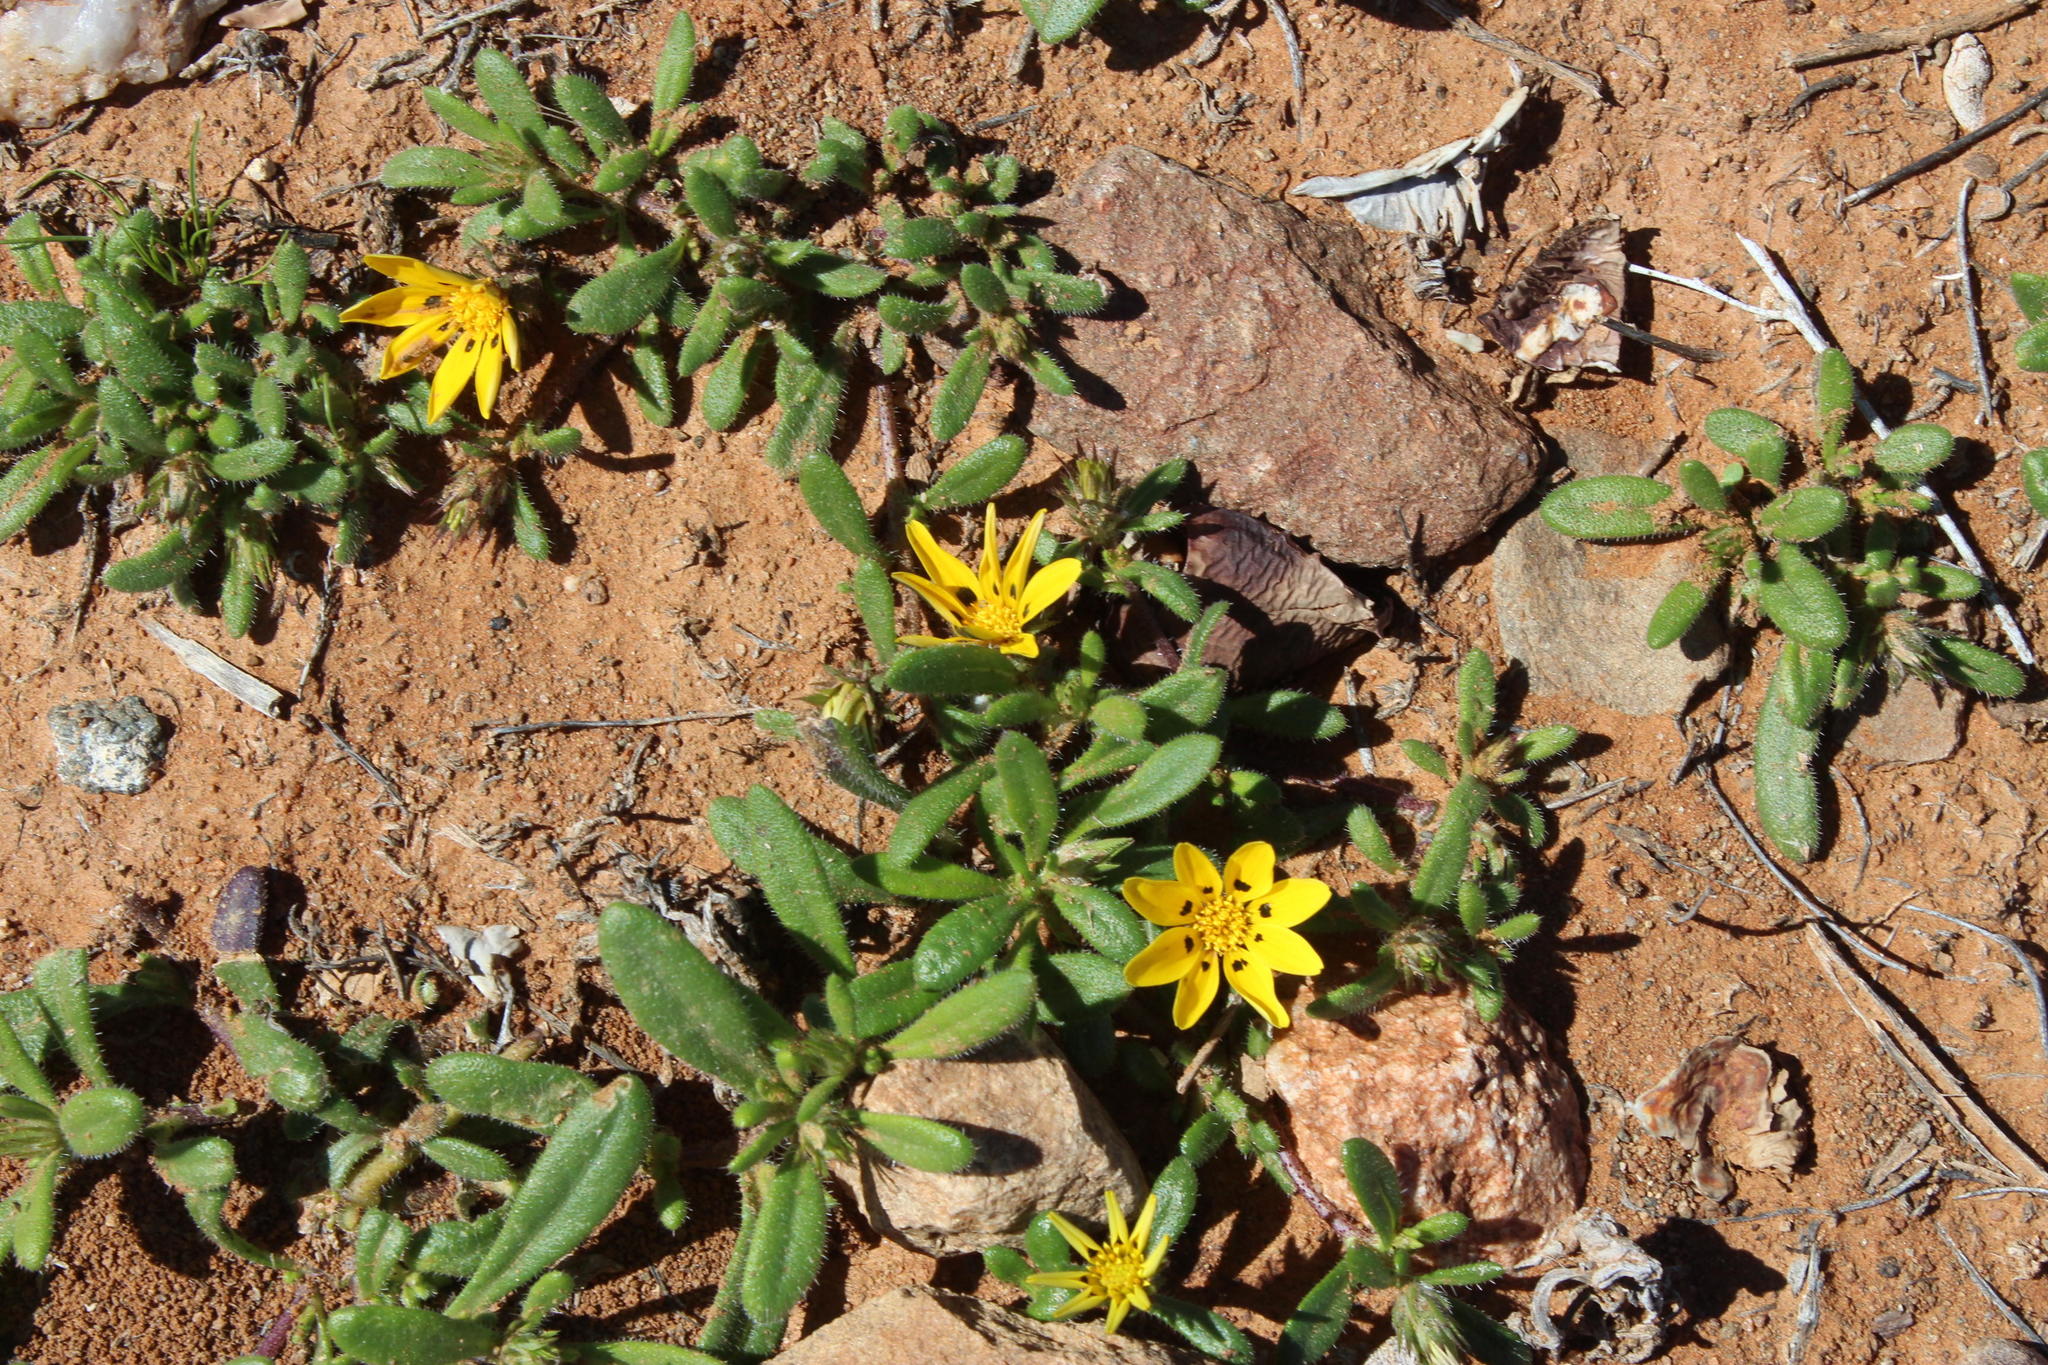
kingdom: Plantae
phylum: Tracheophyta
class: Magnoliopsida
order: Asterales
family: Asteraceae
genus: Gorteria
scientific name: Gorteria corymbosa
